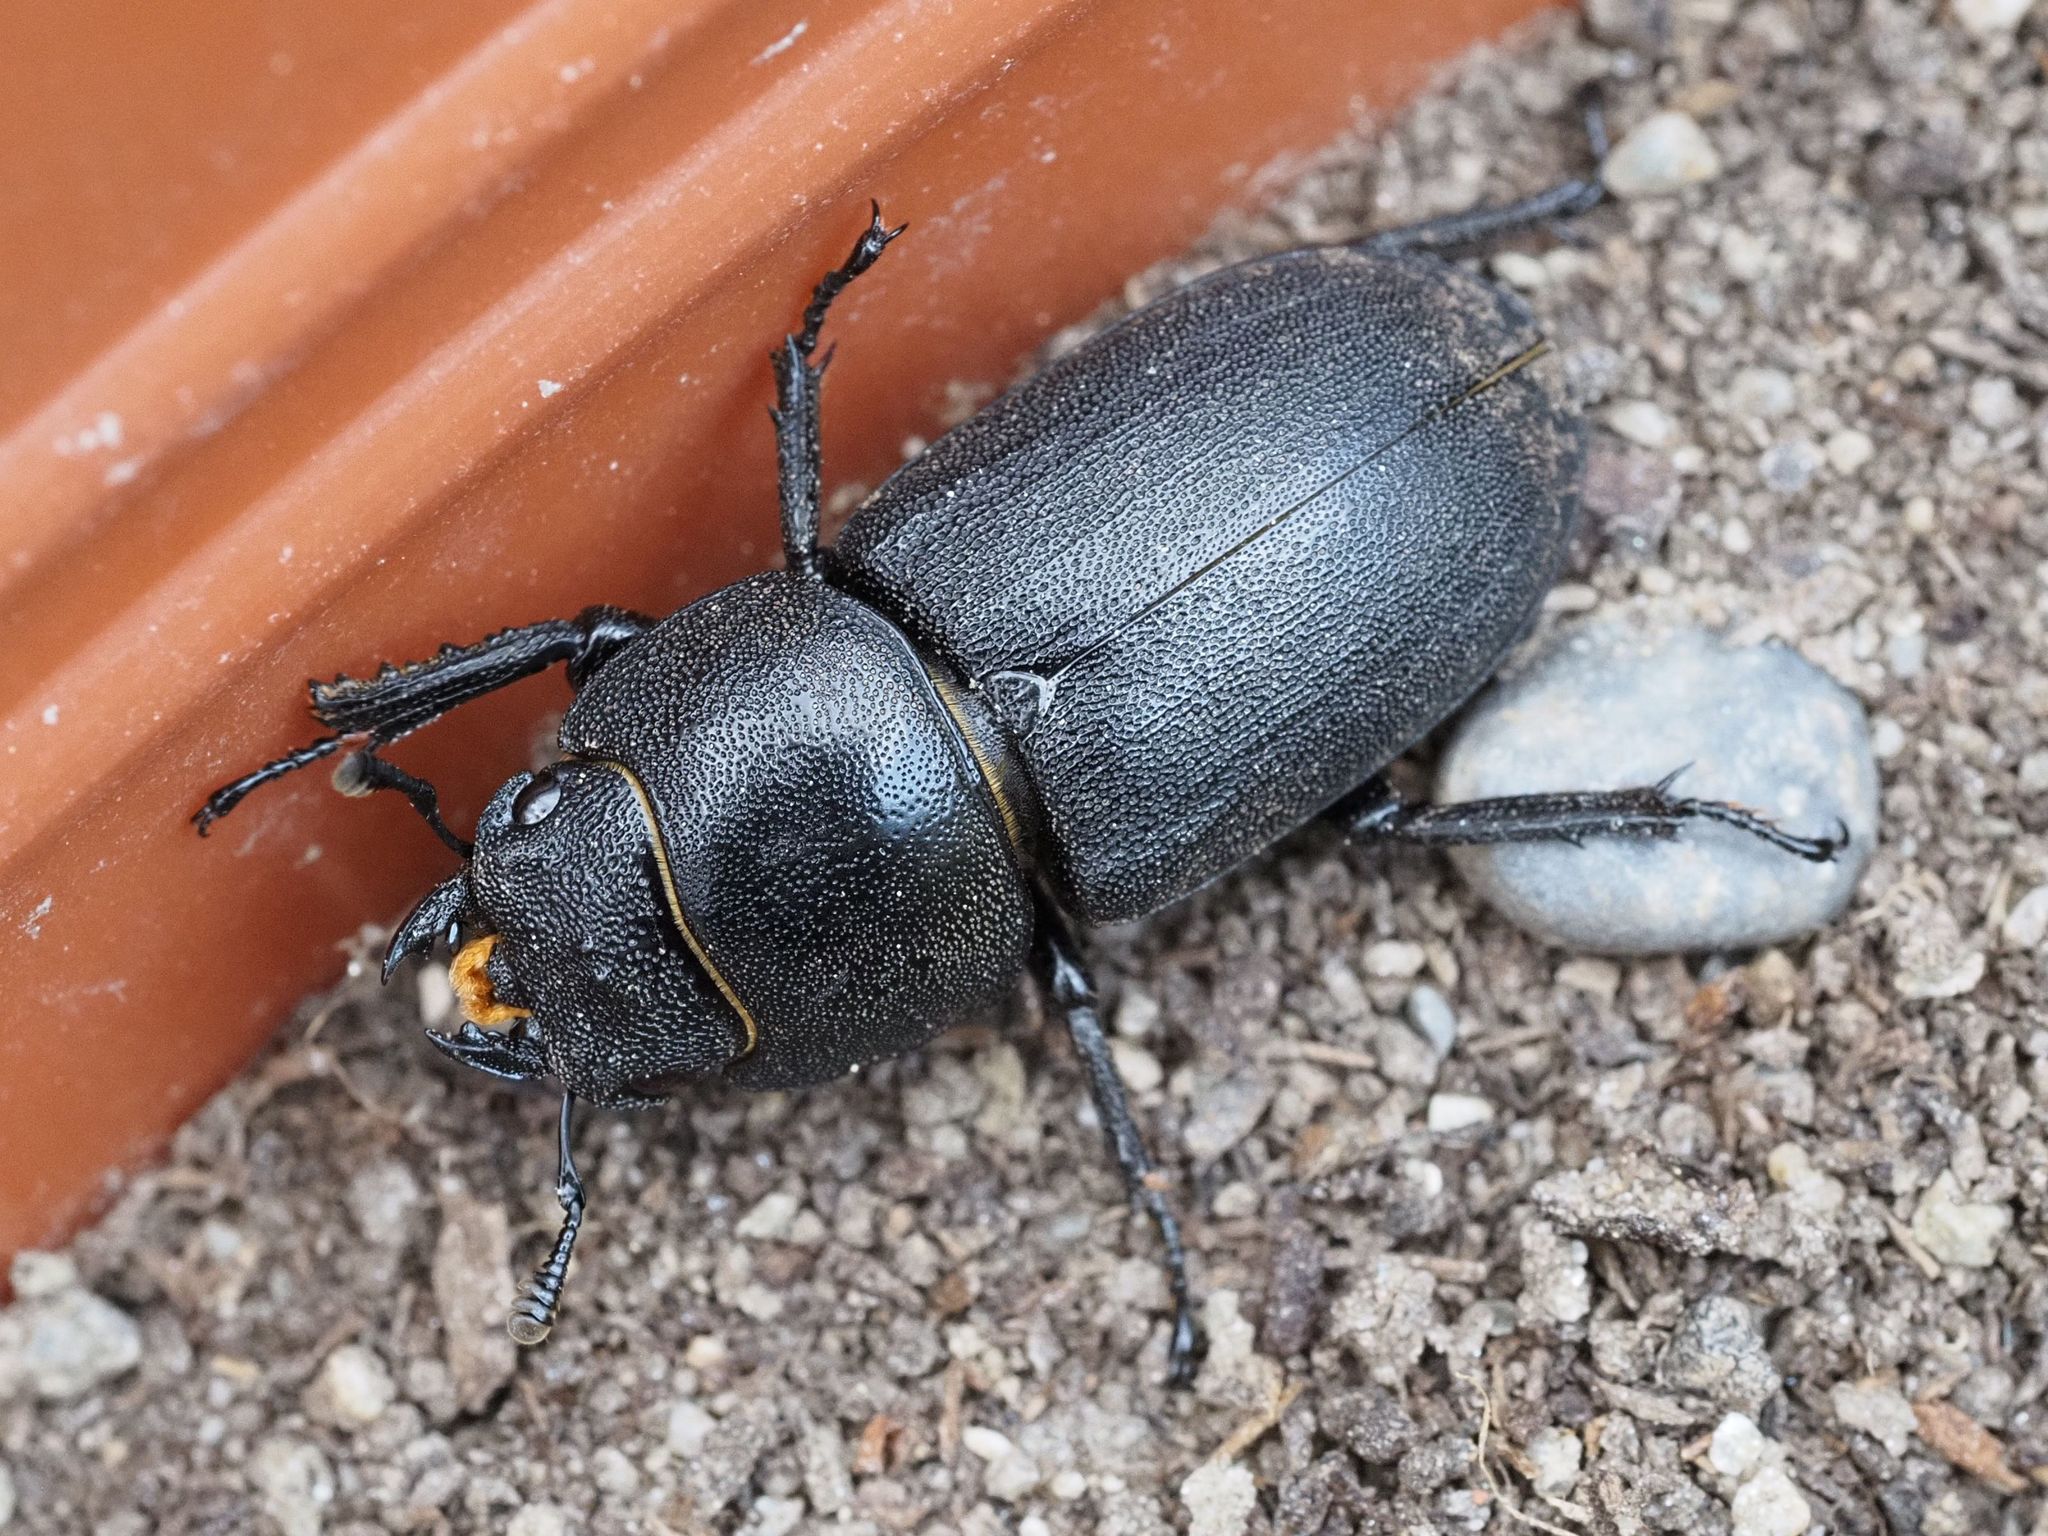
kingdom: Animalia
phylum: Arthropoda
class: Insecta
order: Coleoptera
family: Lucanidae
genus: Dorcus
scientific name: Dorcus parallelipipedus
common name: Lesser stag beetle
